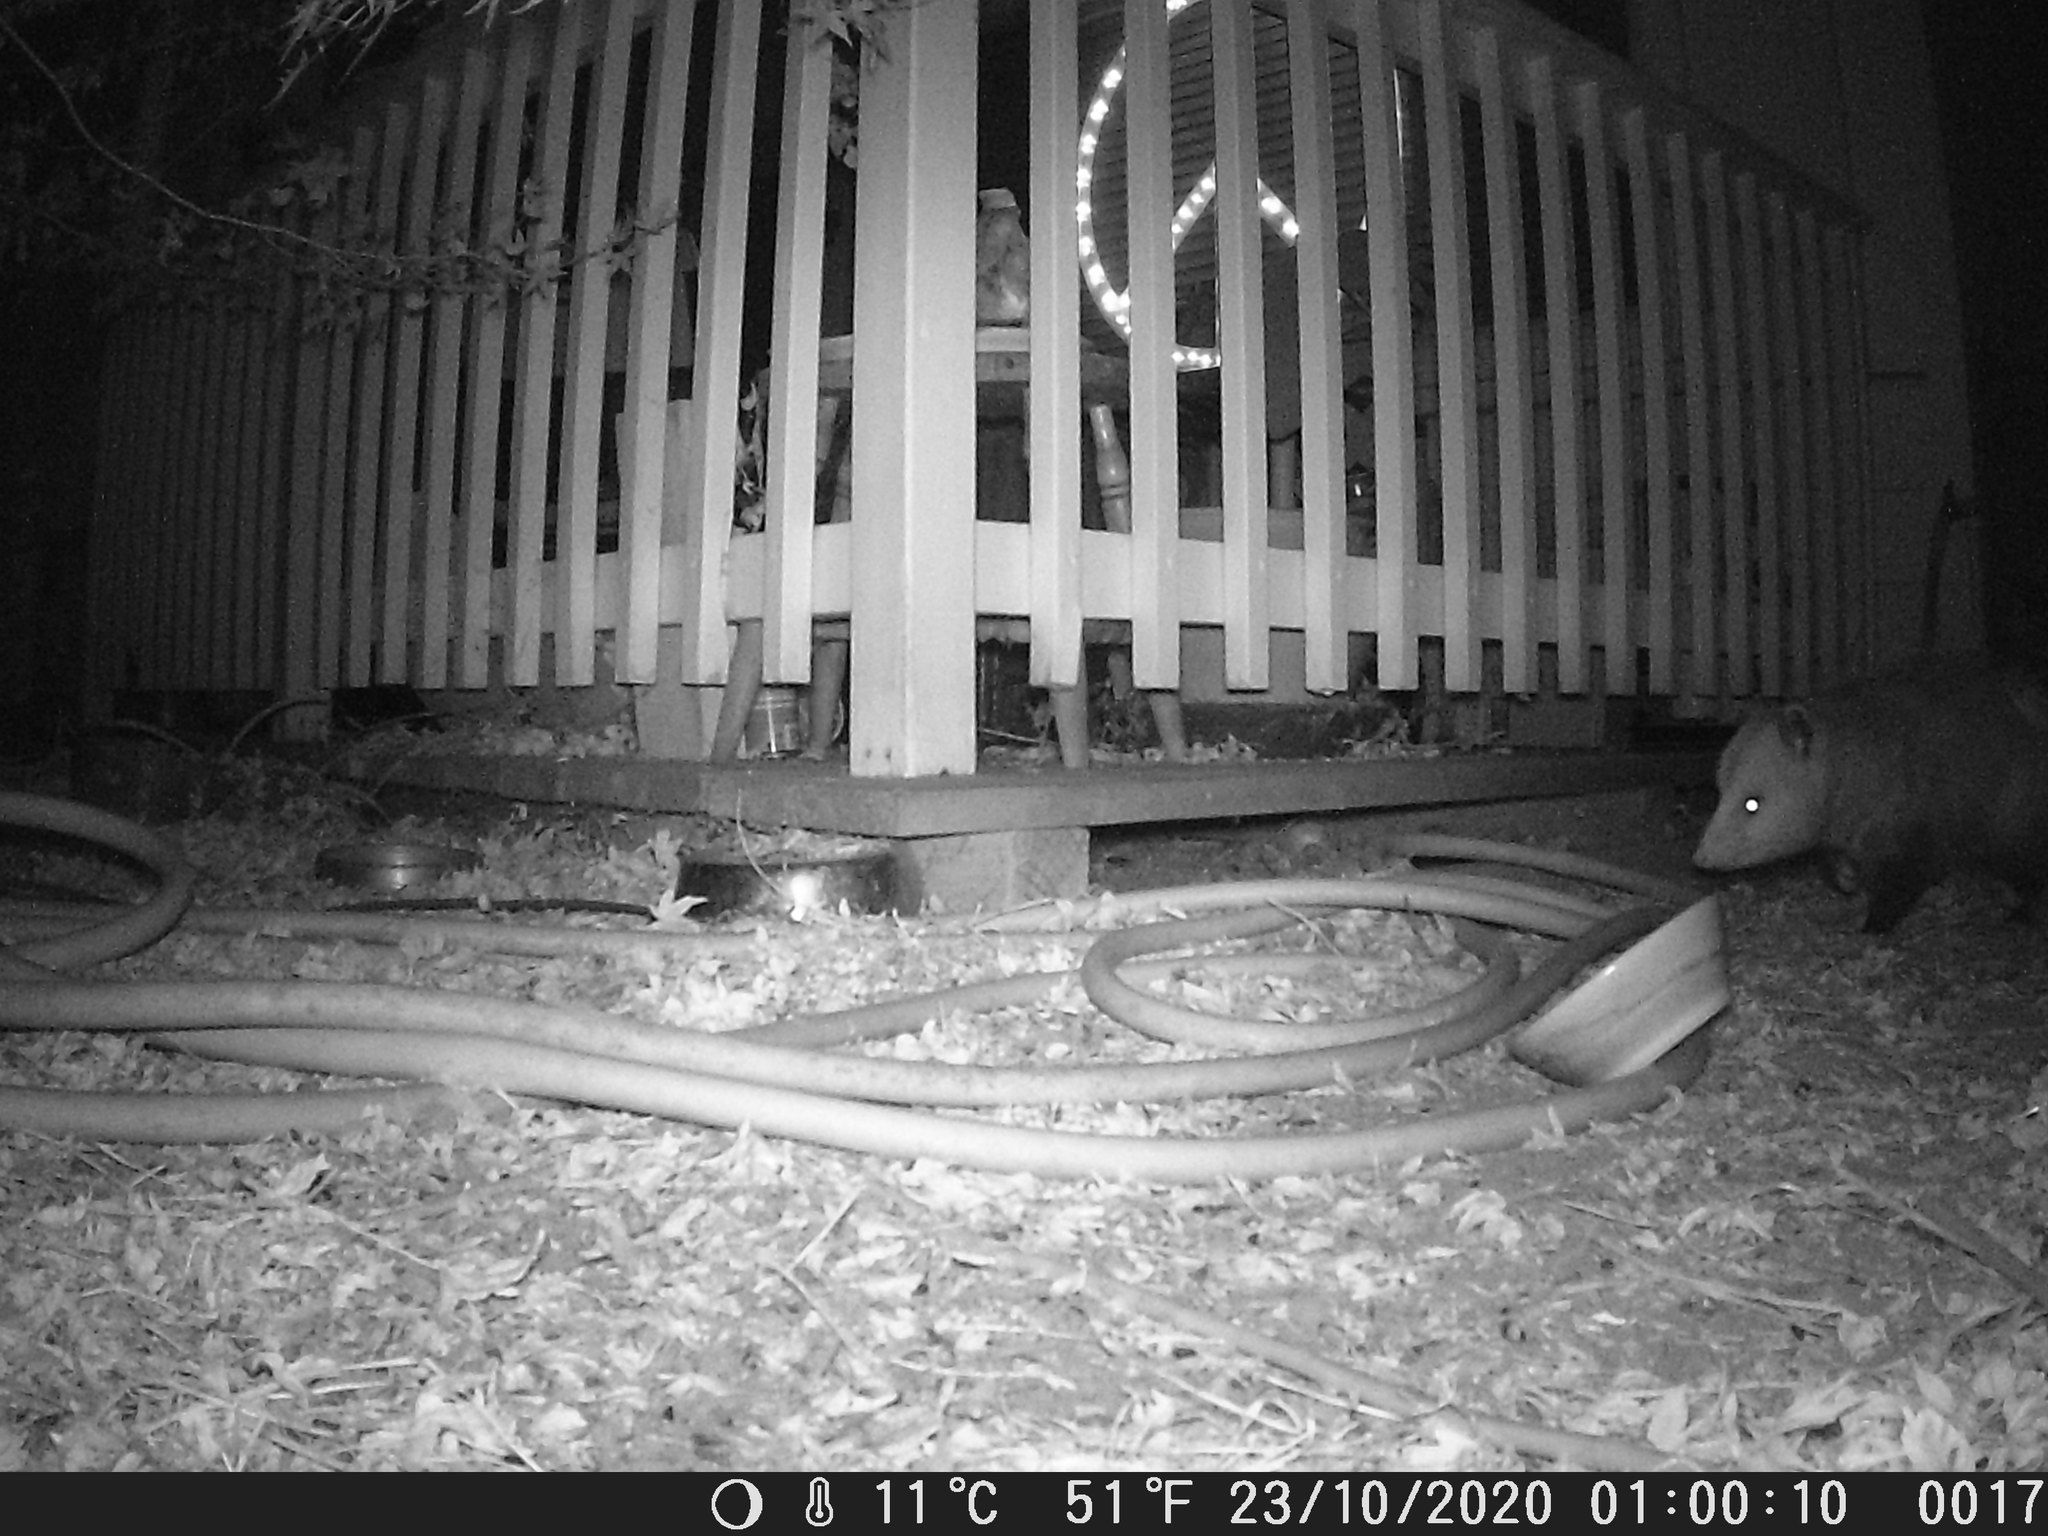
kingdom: Animalia
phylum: Chordata
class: Mammalia
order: Didelphimorphia
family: Didelphidae
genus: Didelphis
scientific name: Didelphis virginiana
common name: Virginia opossum
